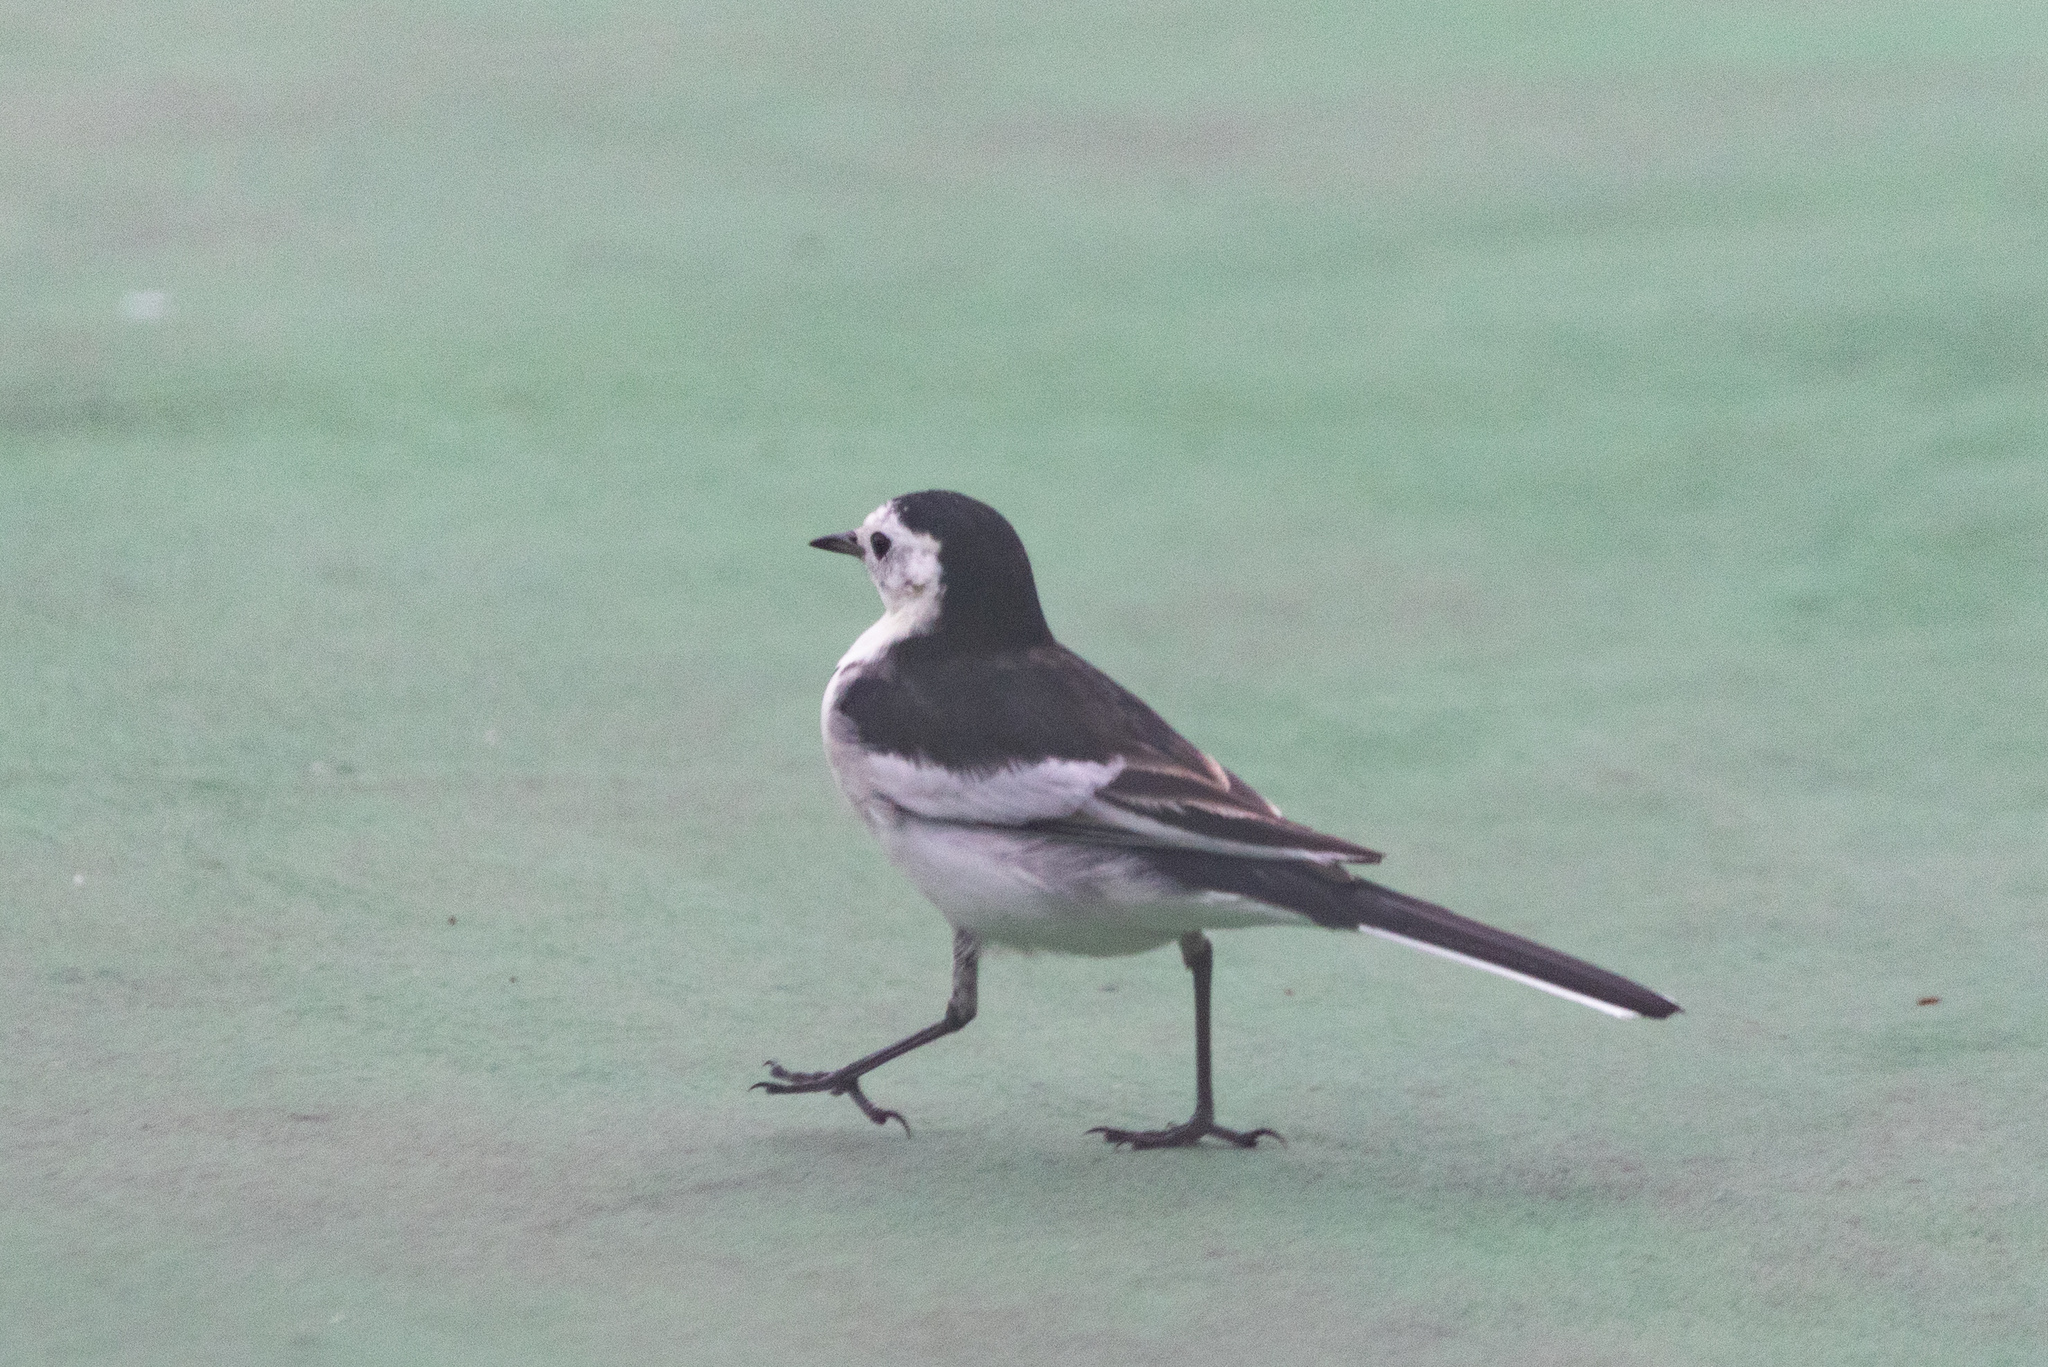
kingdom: Animalia
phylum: Chordata
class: Aves
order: Passeriformes
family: Motacillidae
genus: Motacilla
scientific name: Motacilla alba
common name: White wagtail
